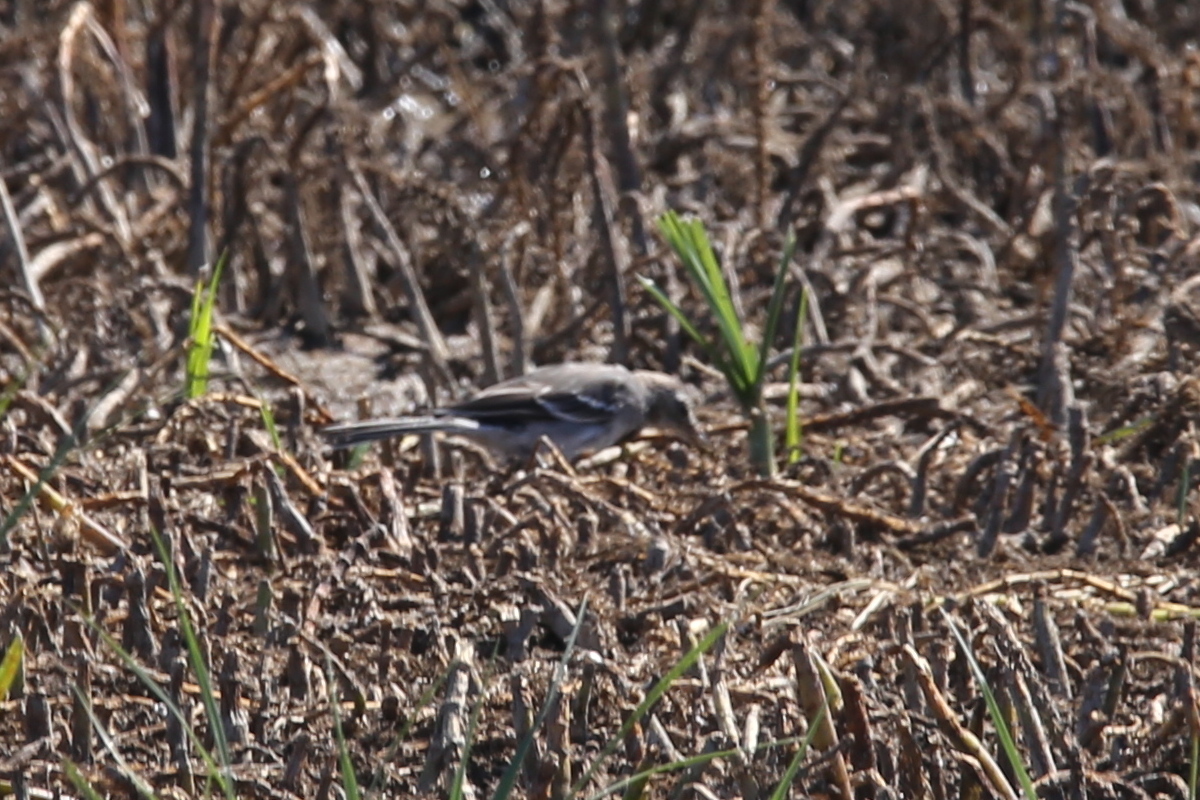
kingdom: Animalia
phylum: Chordata
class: Aves
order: Passeriformes
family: Motacillidae
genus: Motacilla
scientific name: Motacilla flava
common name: Western yellow wagtail
